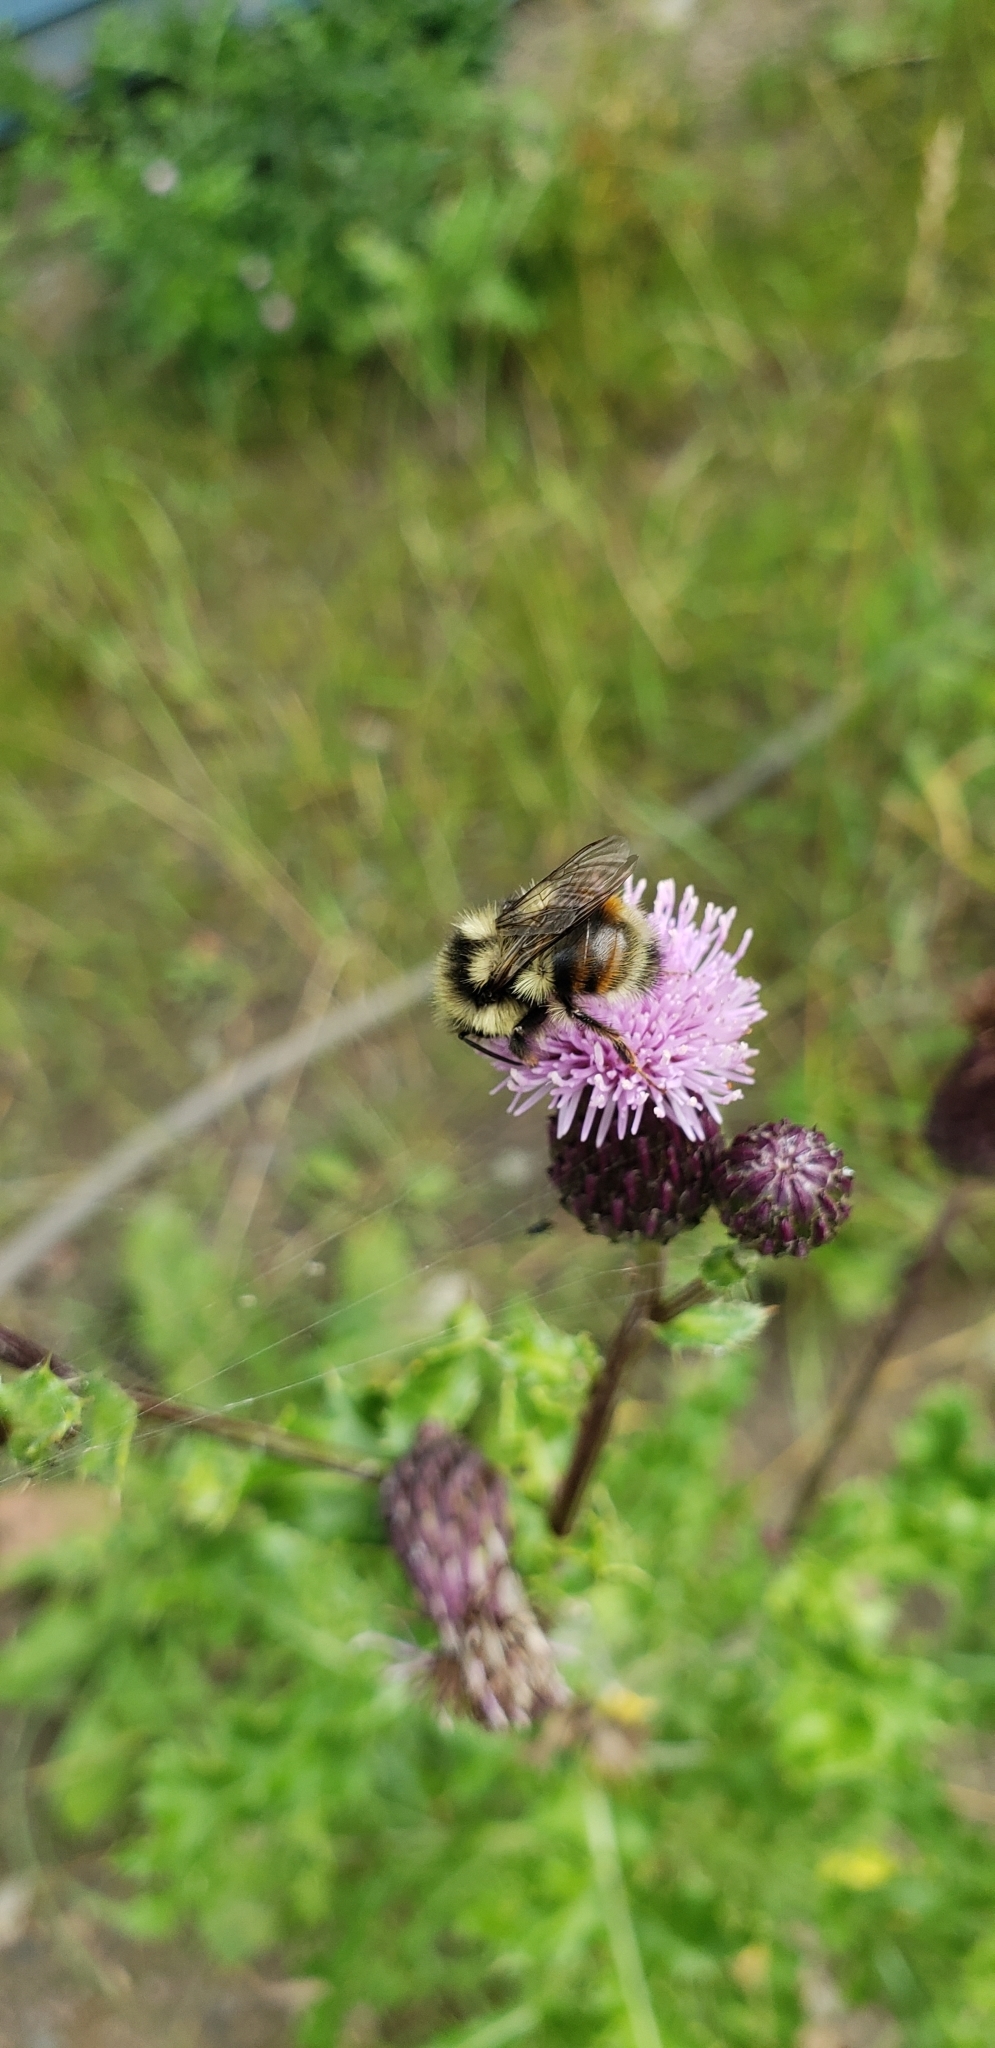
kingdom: Animalia
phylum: Arthropoda
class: Insecta
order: Hymenoptera
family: Apidae
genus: Bombus
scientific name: Bombus vancouverensis
